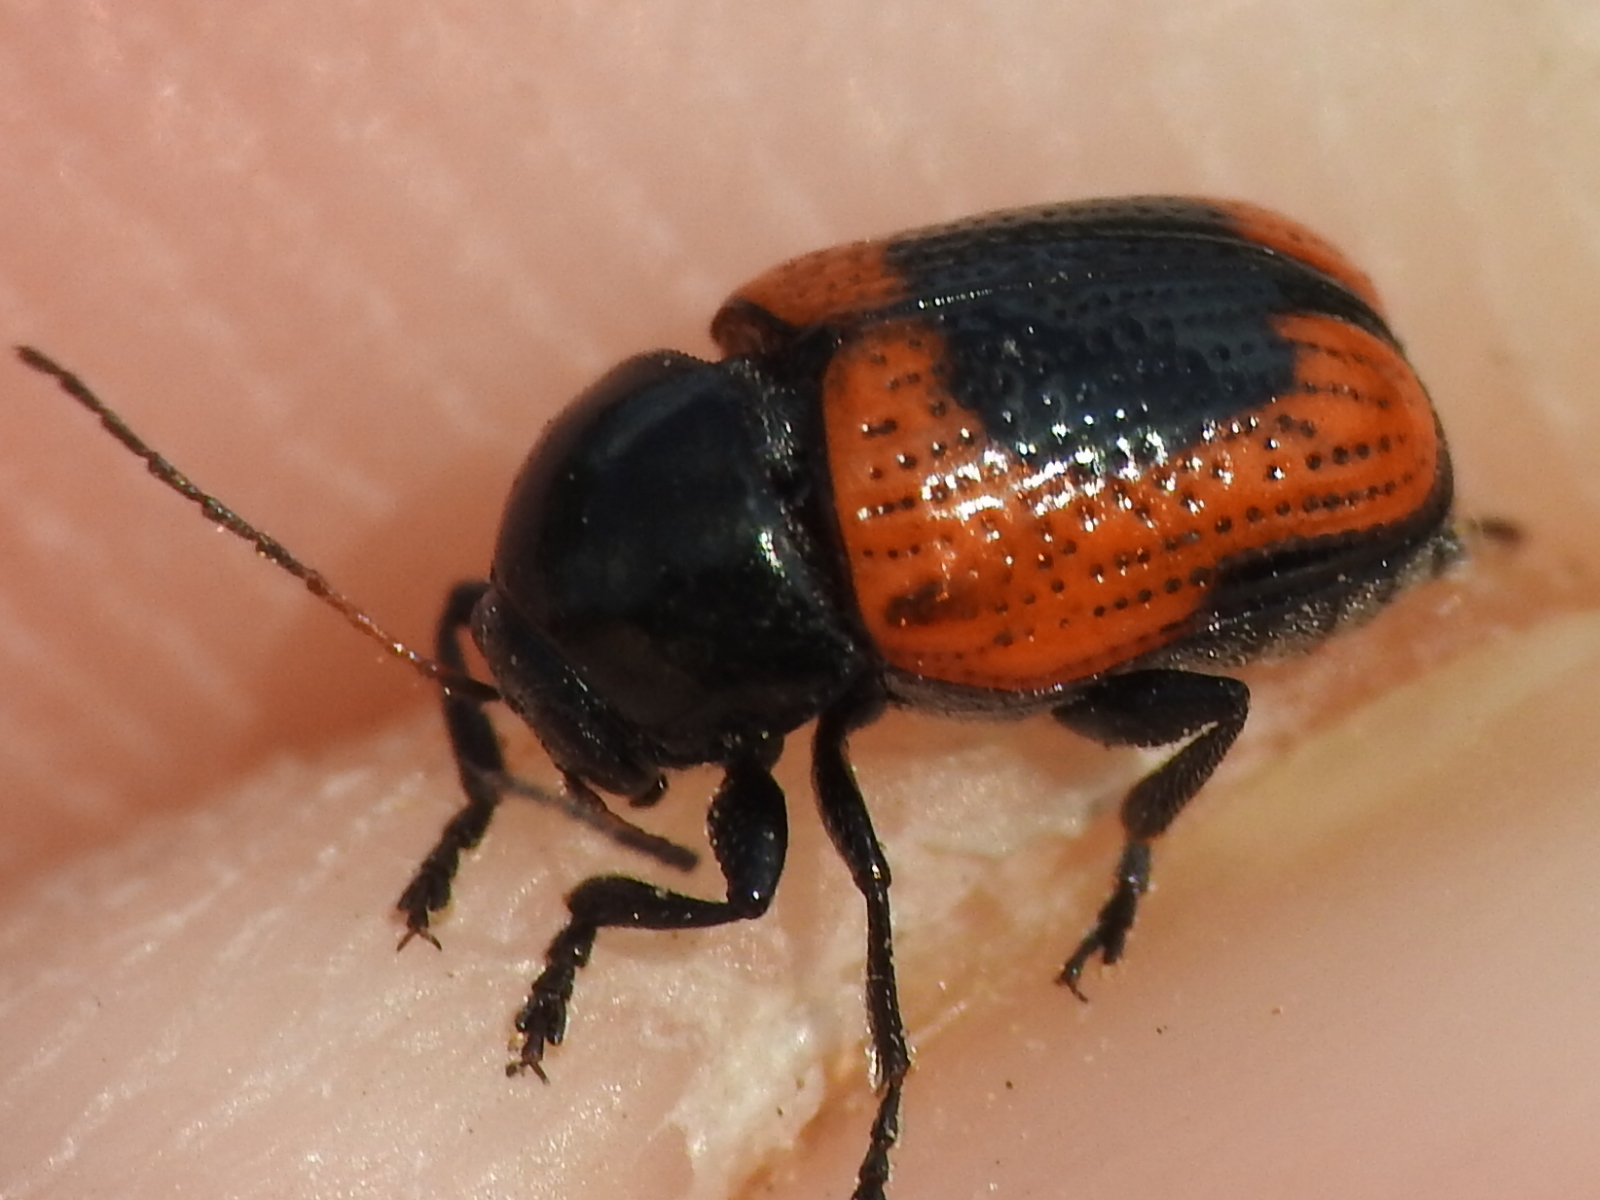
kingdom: Animalia
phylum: Arthropoda
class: Insecta
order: Coleoptera
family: Chrysomelidae
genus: Cryptocephalus
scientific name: Cryptocephalus notatus
